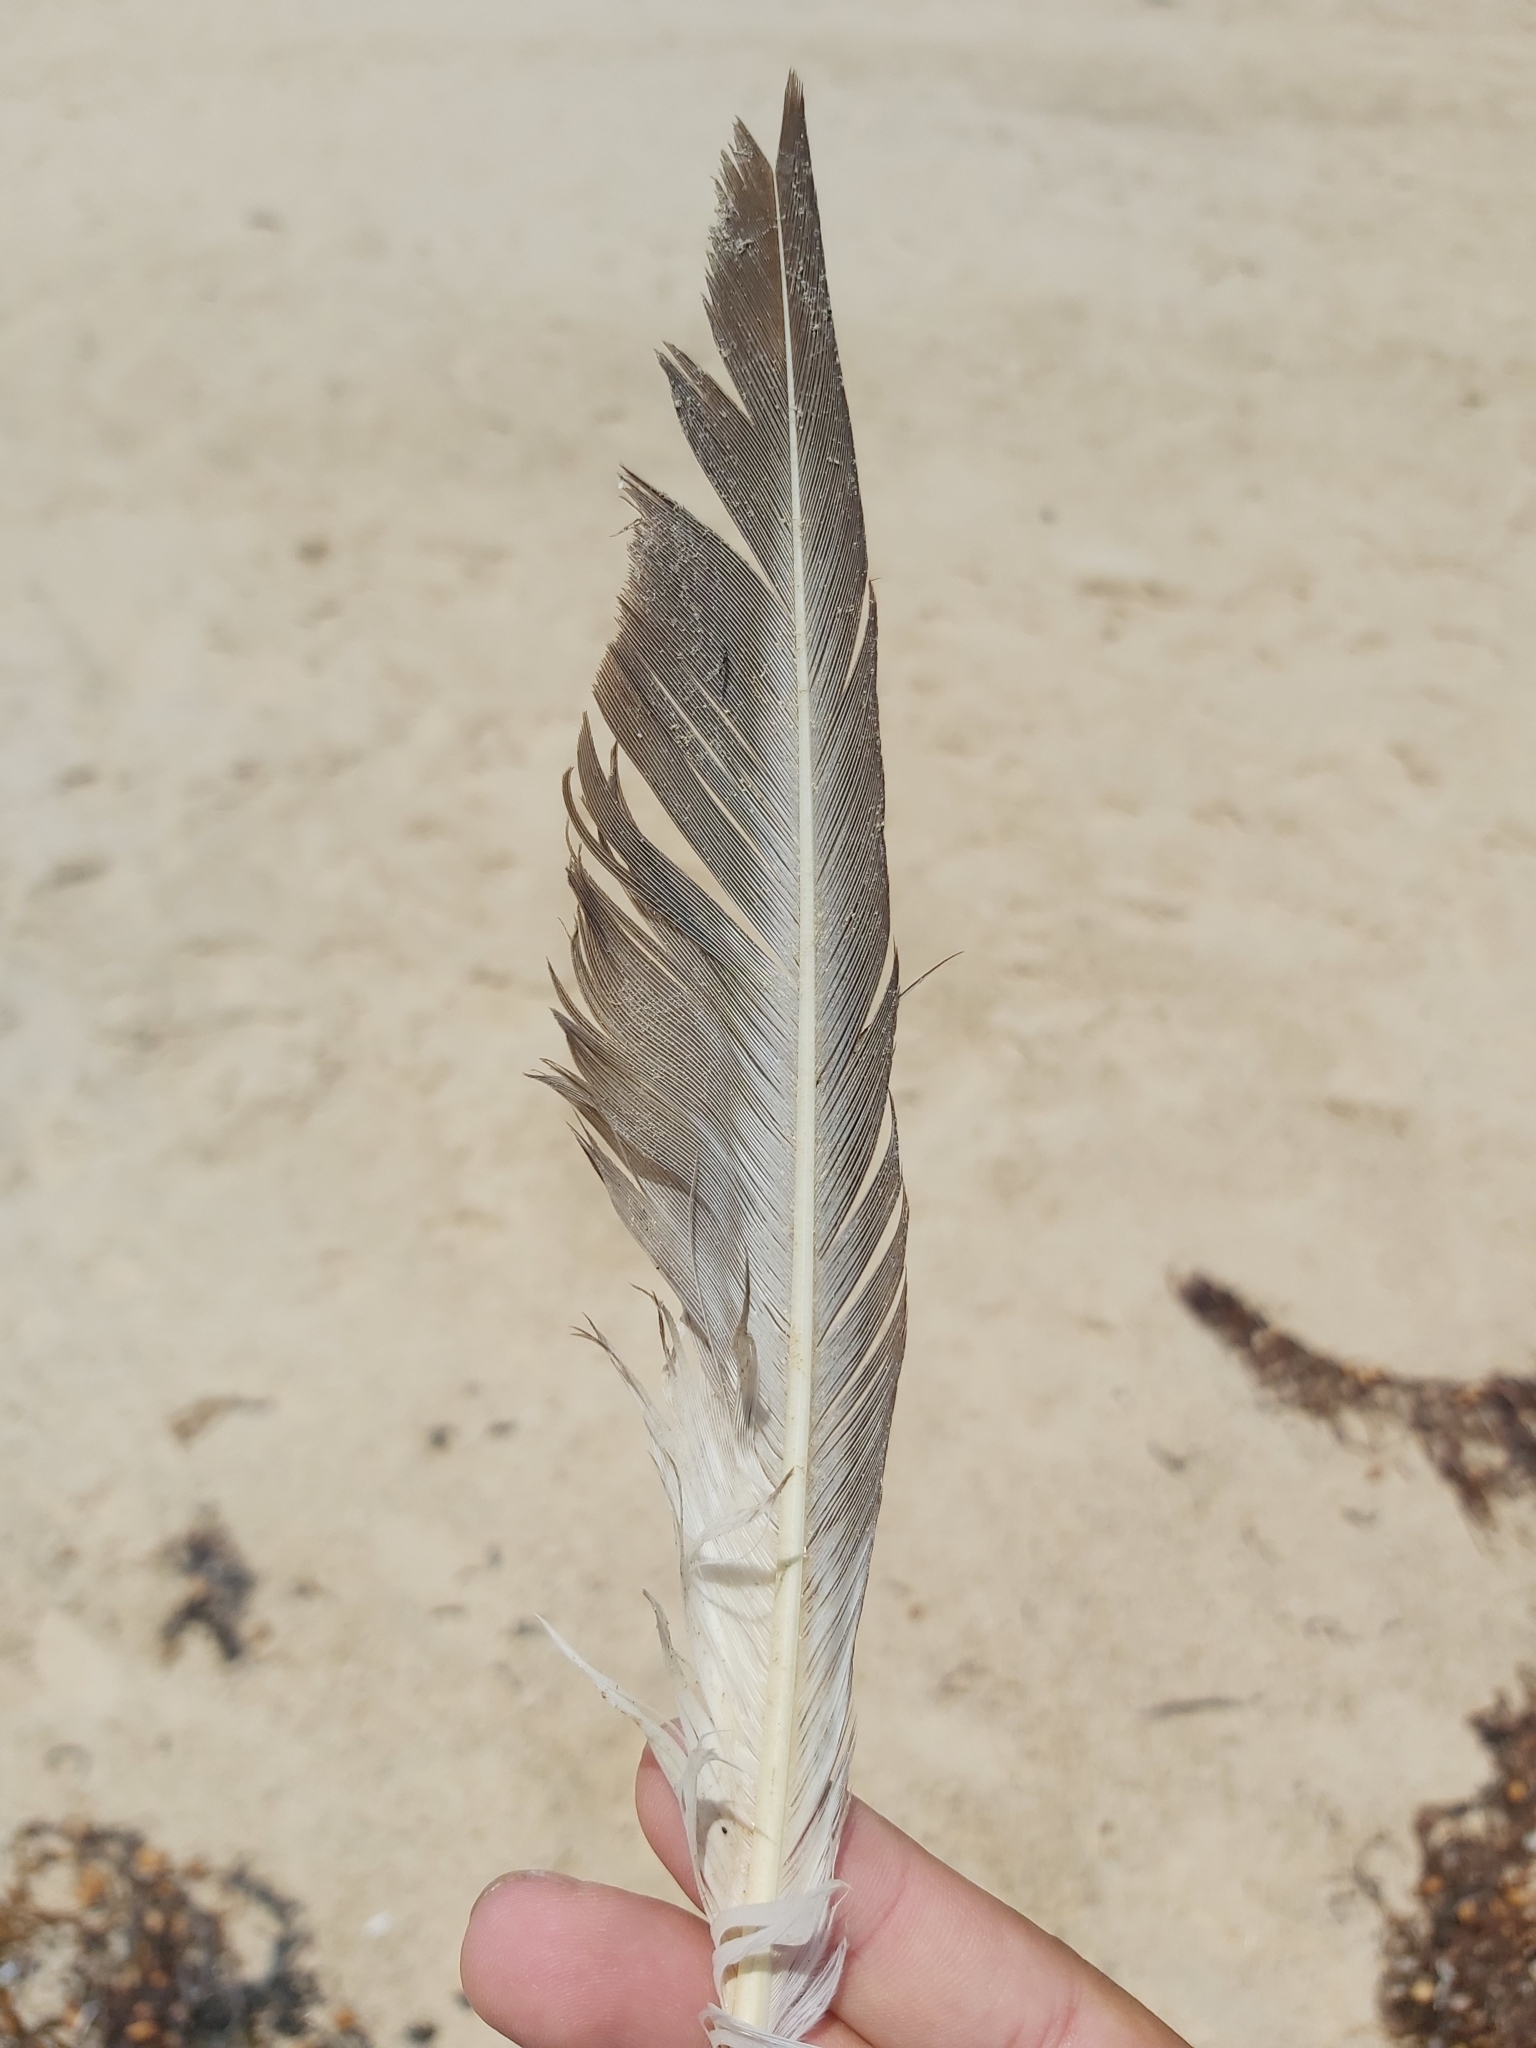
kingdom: Animalia
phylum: Chordata
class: Aves
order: Charadriiformes
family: Stercorariidae
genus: Stercorarius
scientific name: Stercorarius pomarinus
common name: Pomarine jaeger
